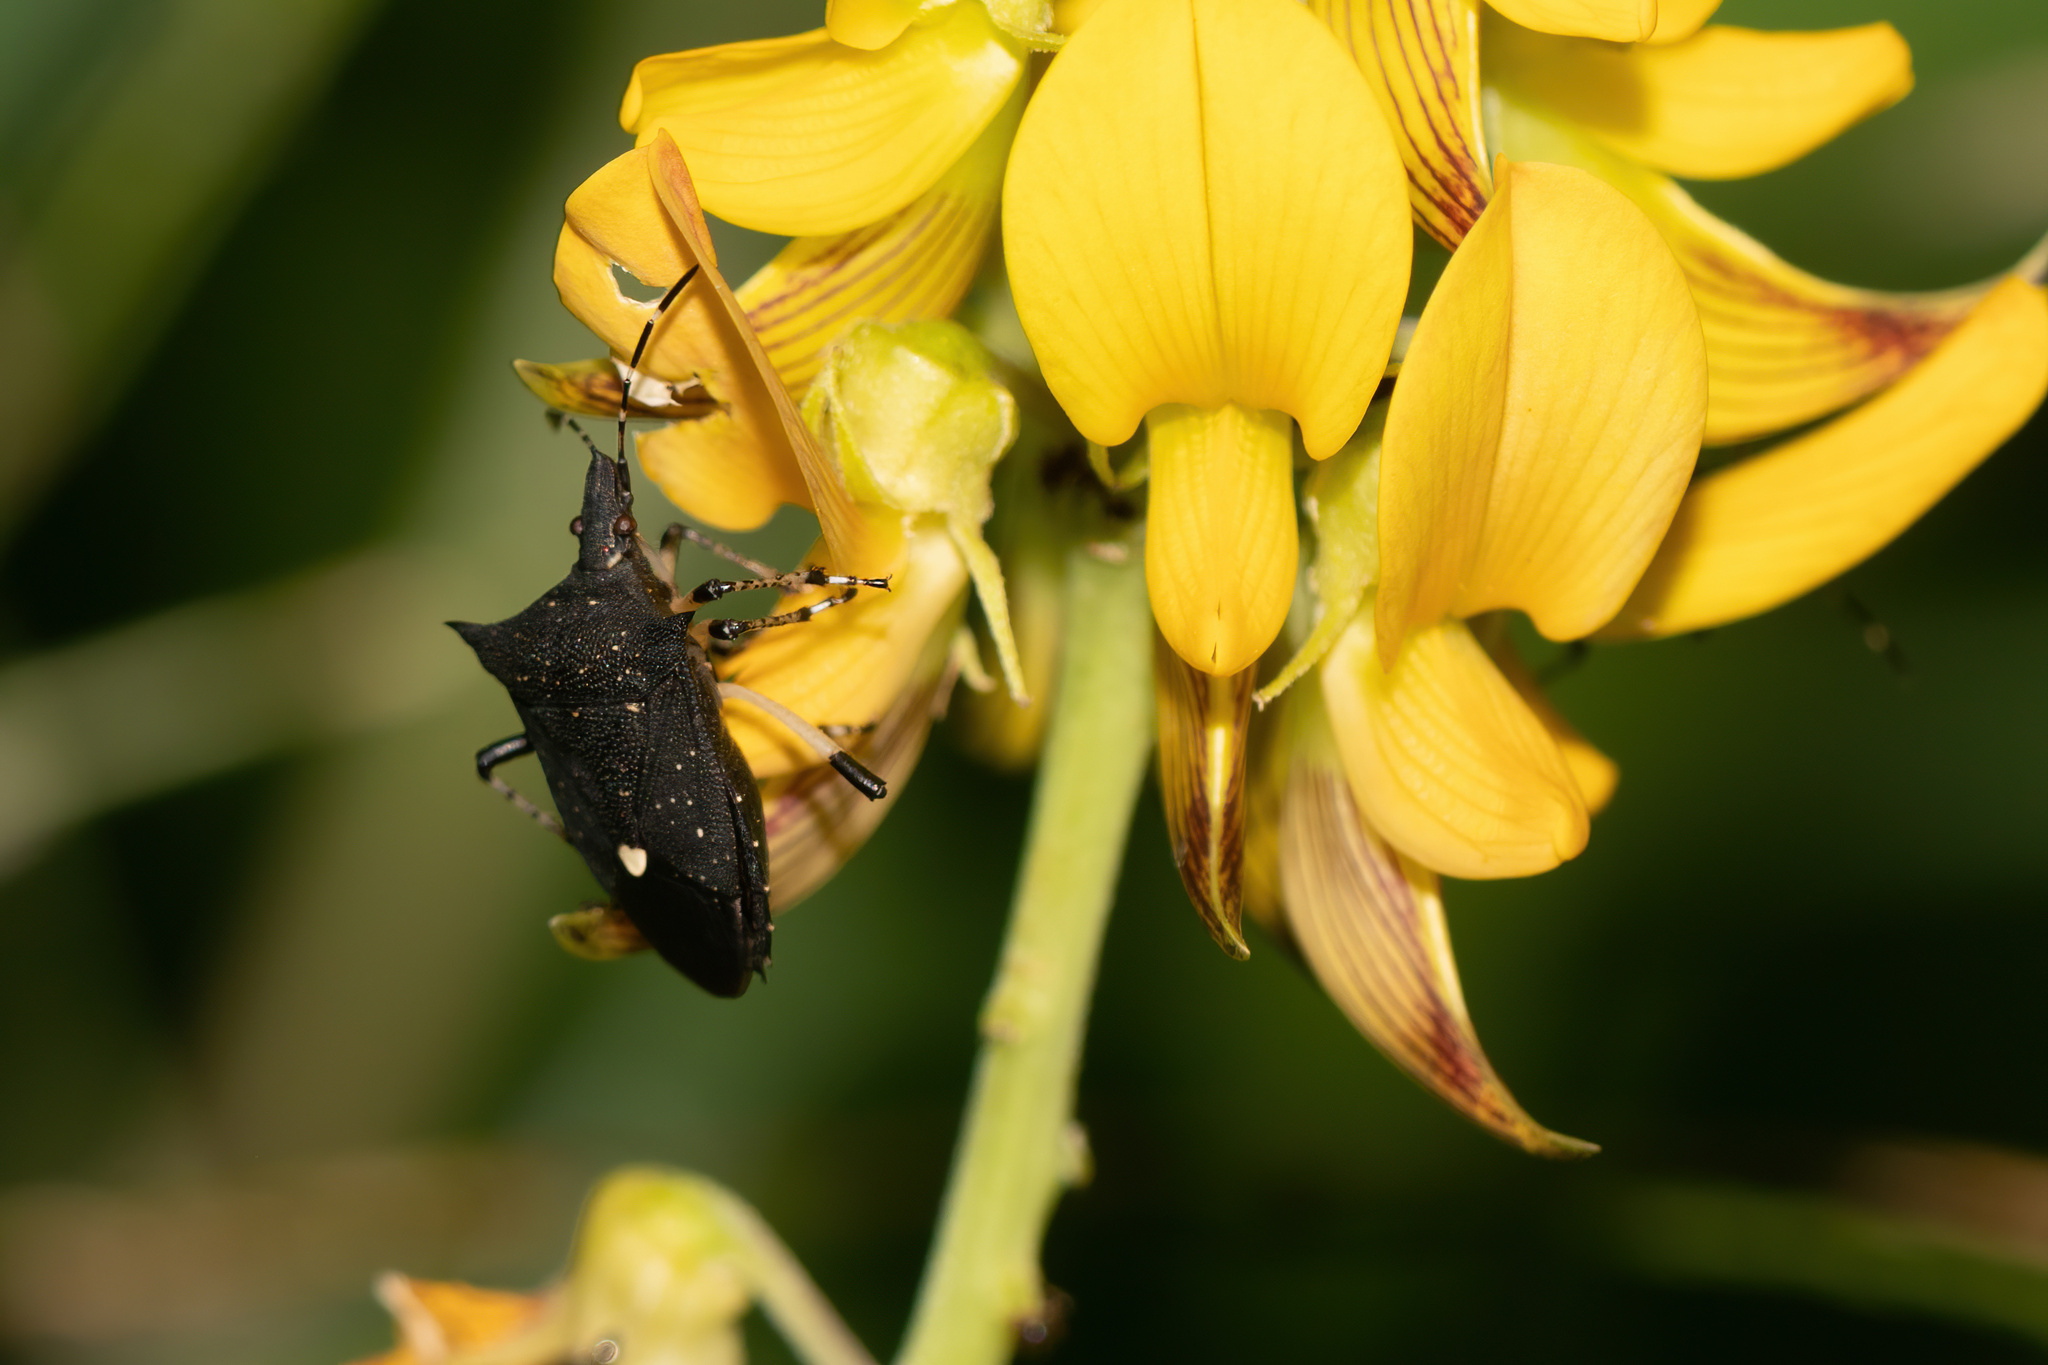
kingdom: Animalia
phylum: Arthropoda
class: Insecta
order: Hemiptera
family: Pentatomidae
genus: Proxys
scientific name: Proxys punctulatus
